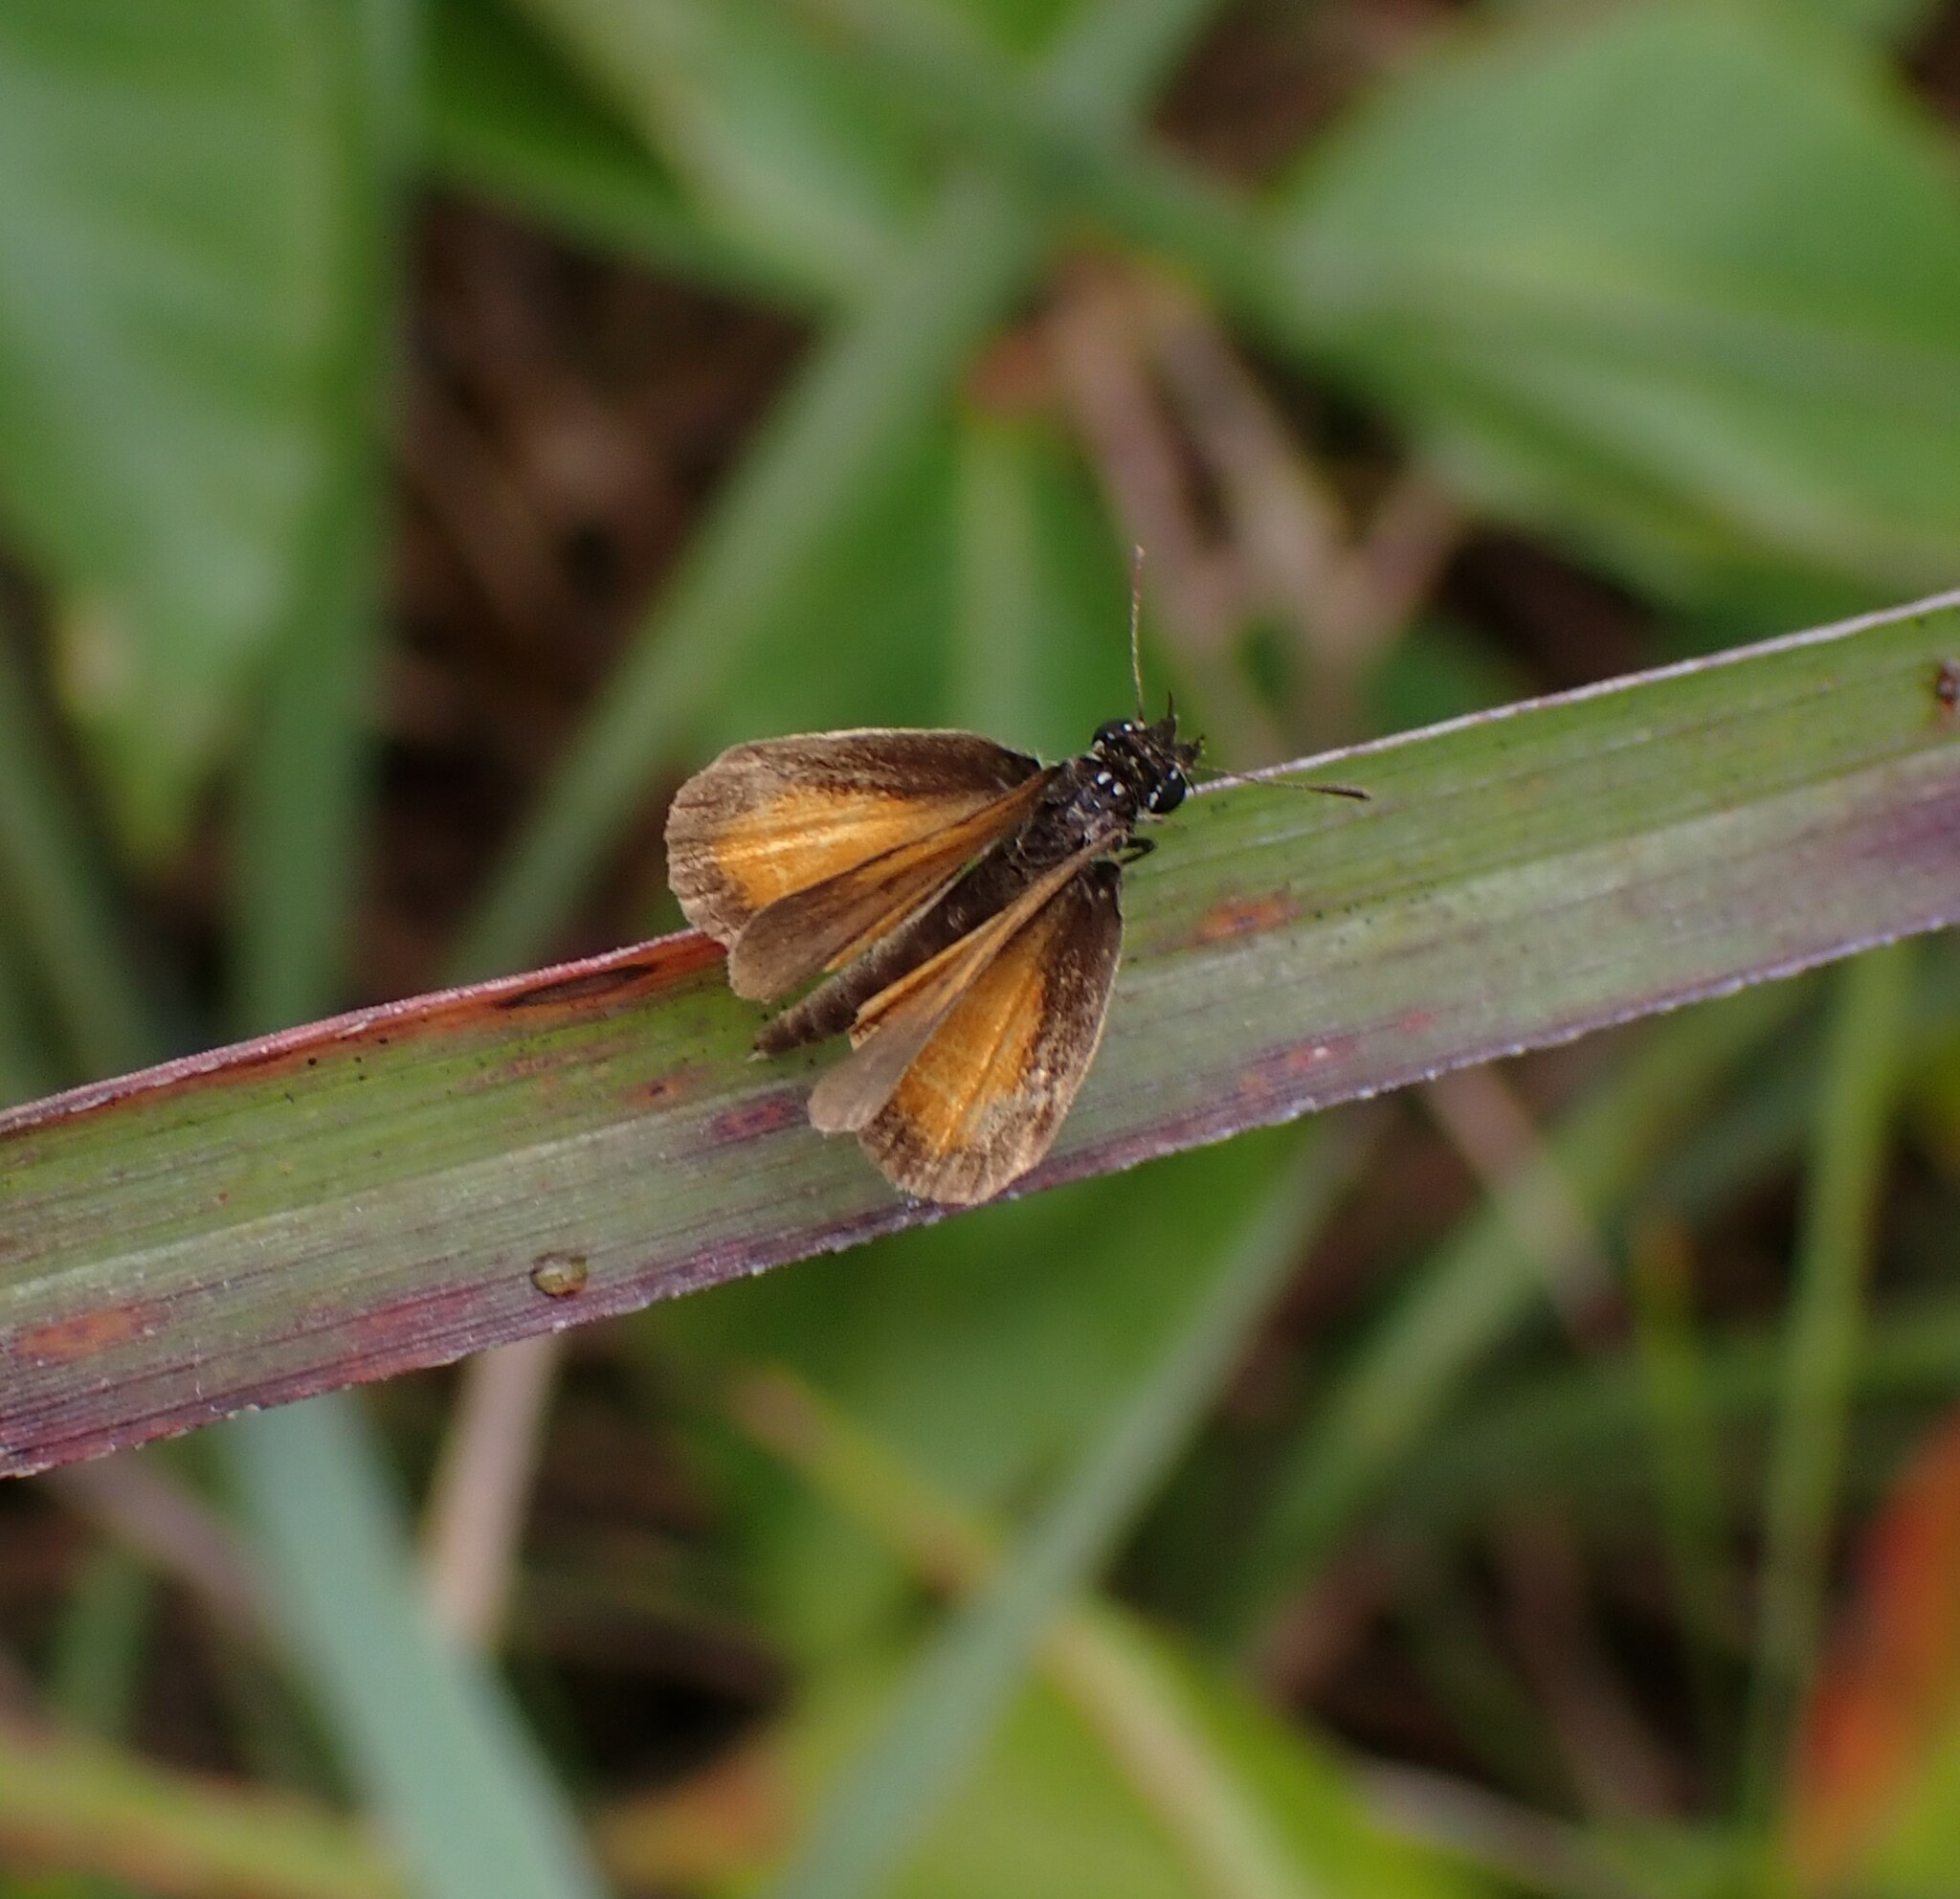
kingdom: Animalia
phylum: Arthropoda
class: Insecta
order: Lepidoptera
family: Hesperiidae
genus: Ancyloxypha
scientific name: Ancyloxypha numitor
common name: Least skipper
